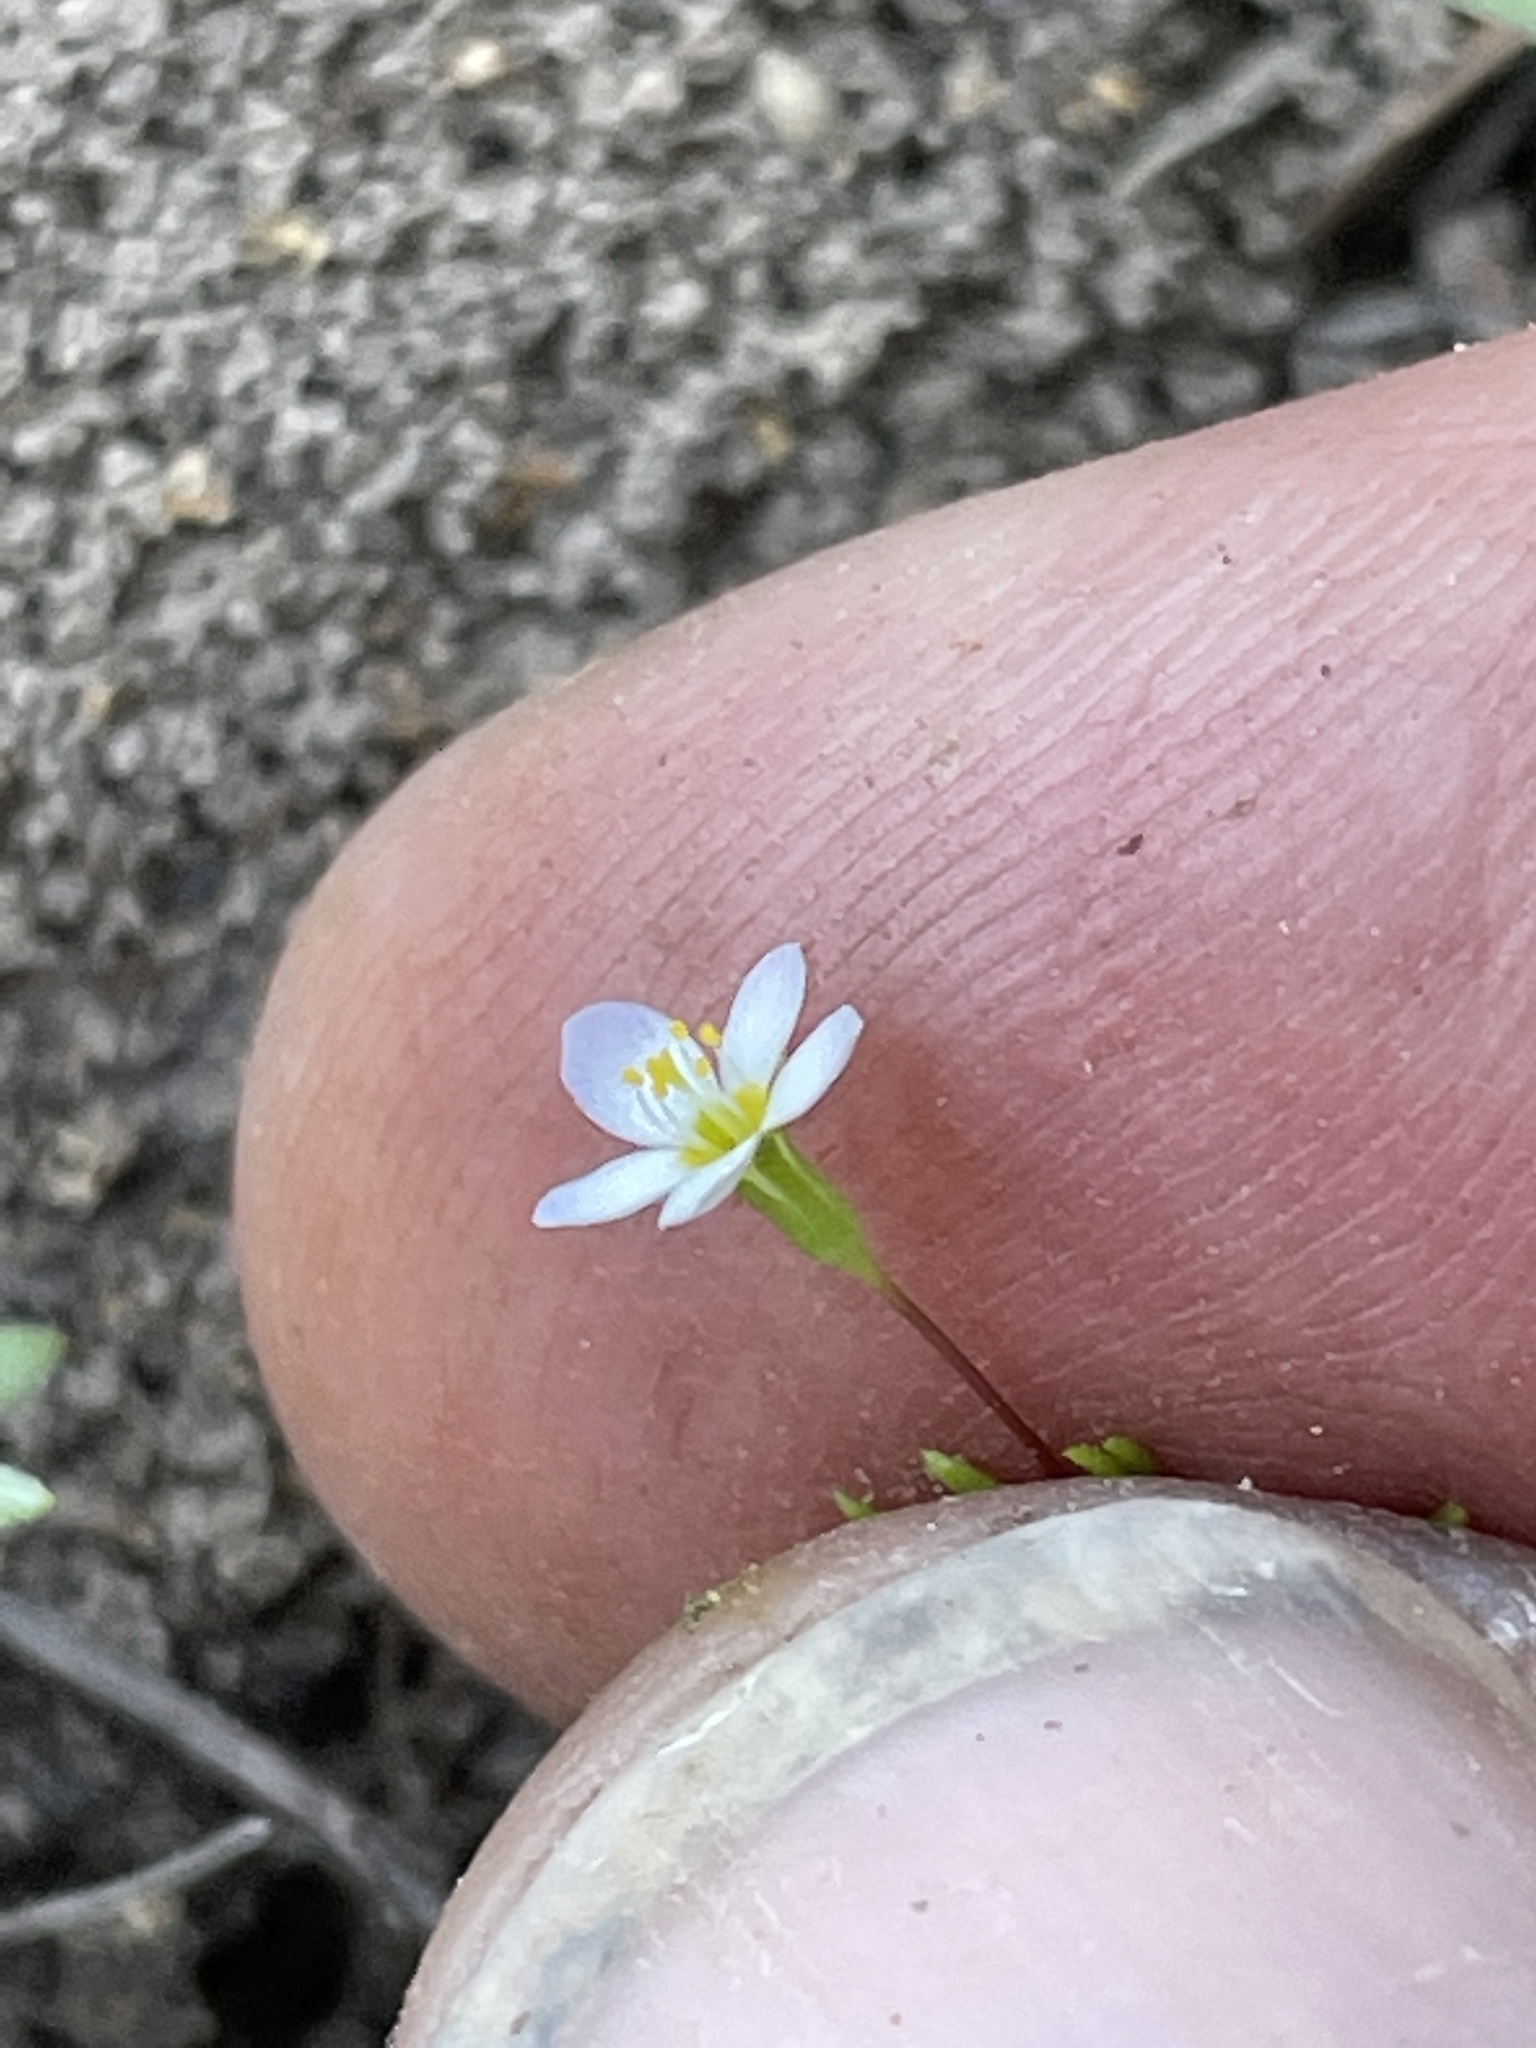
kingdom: Plantae
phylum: Tracheophyta
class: Magnoliopsida
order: Ericales
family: Polemoniaceae
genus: Linanthus
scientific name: Linanthus harknessii
